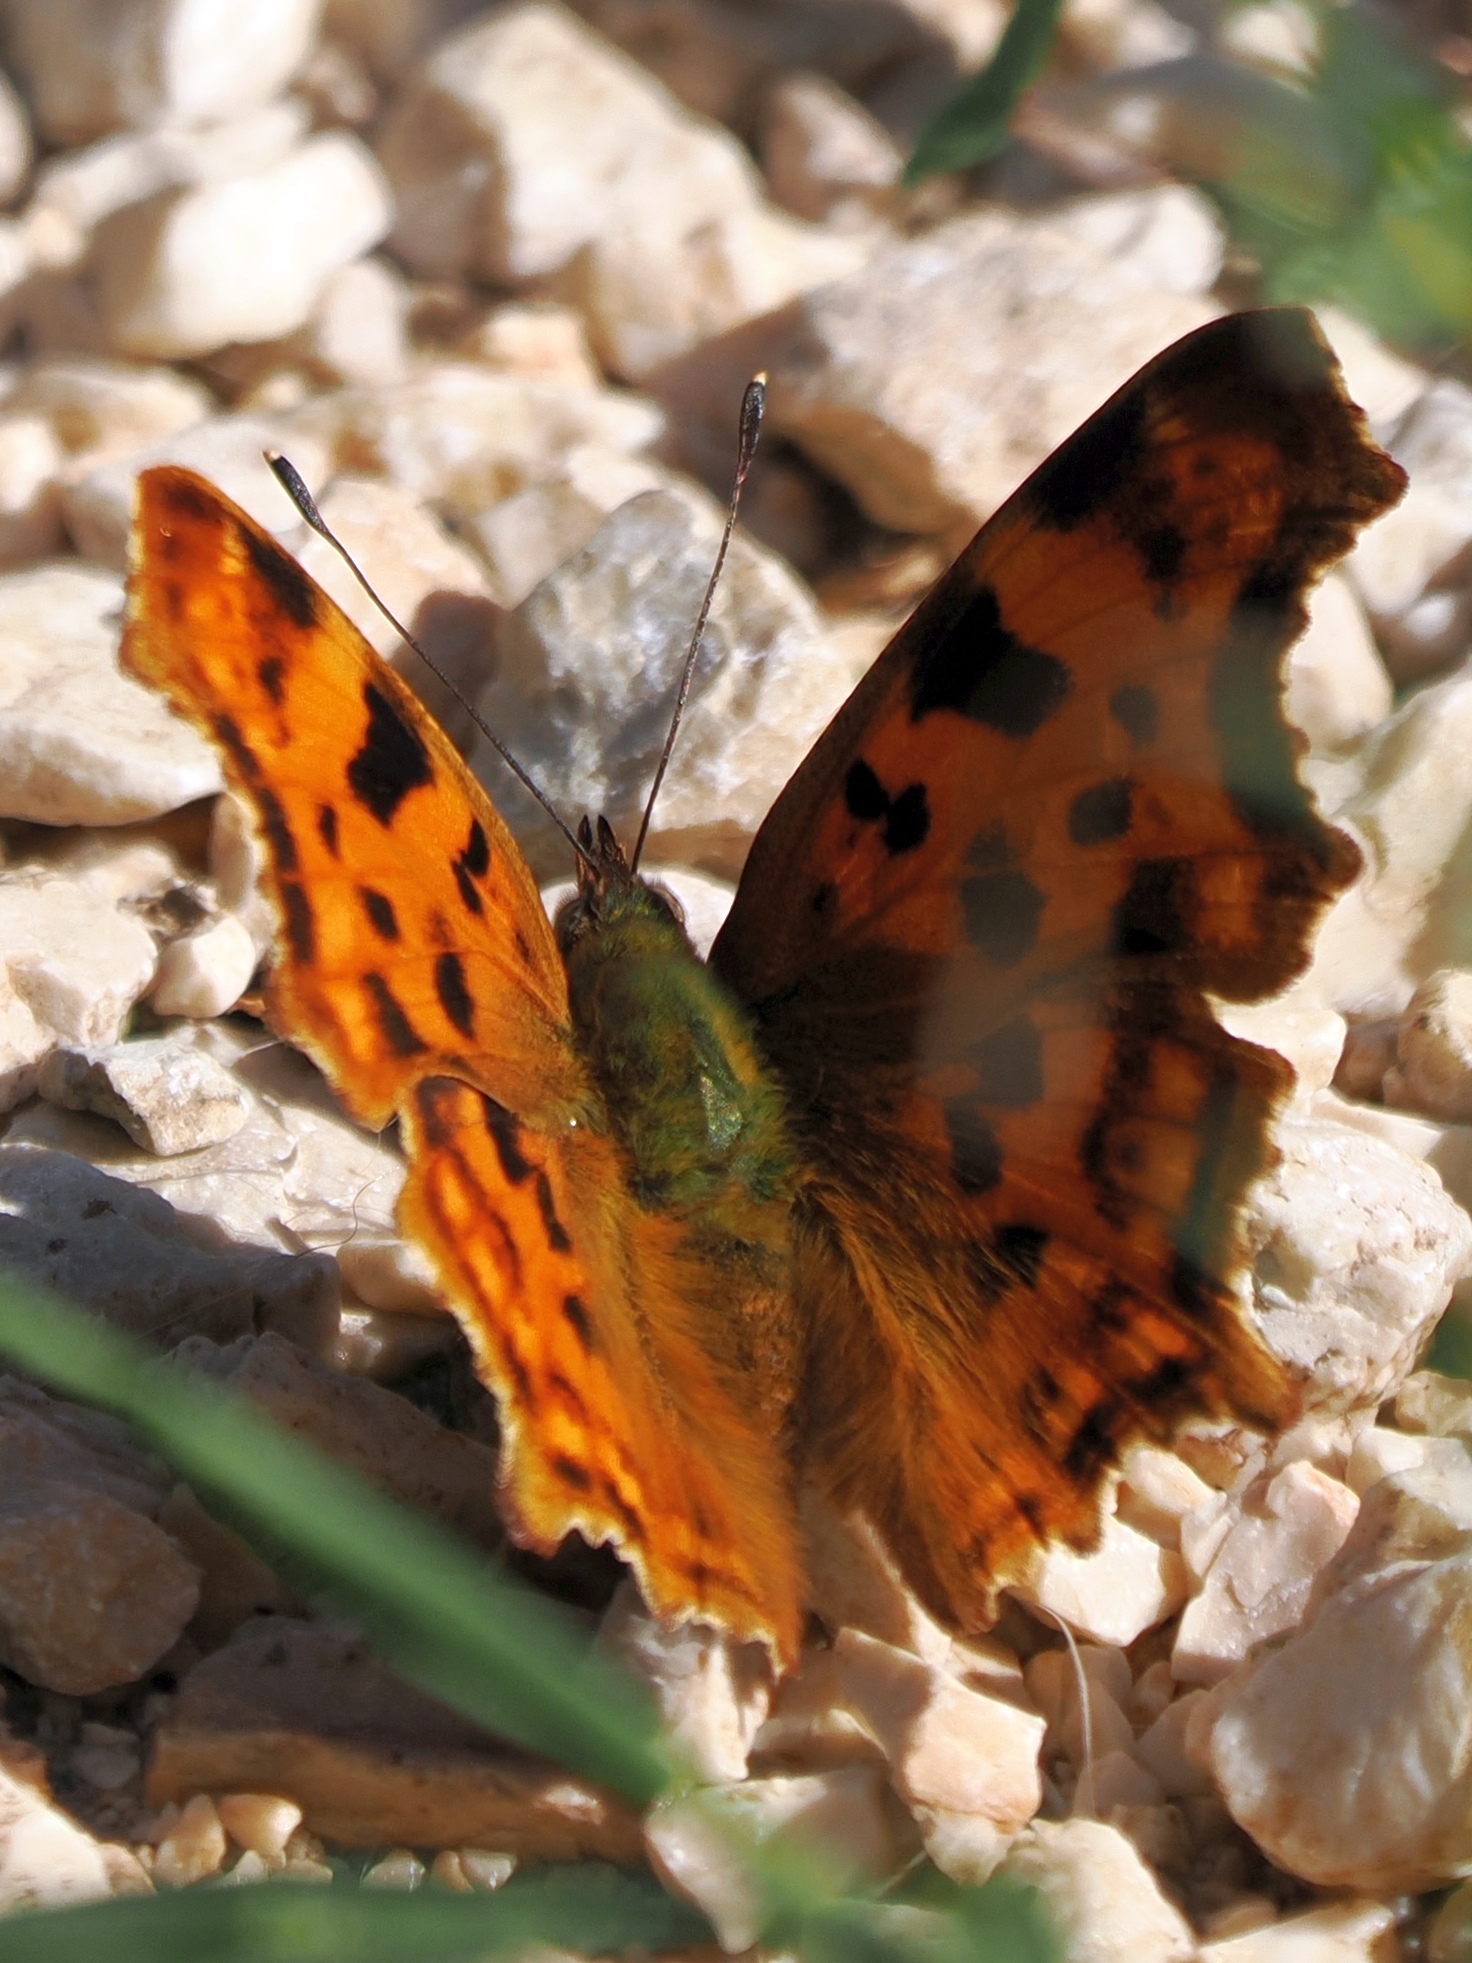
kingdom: Animalia
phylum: Arthropoda
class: Insecta
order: Lepidoptera
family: Nymphalidae
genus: Polygonia
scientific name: Polygonia c-album
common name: Comma
